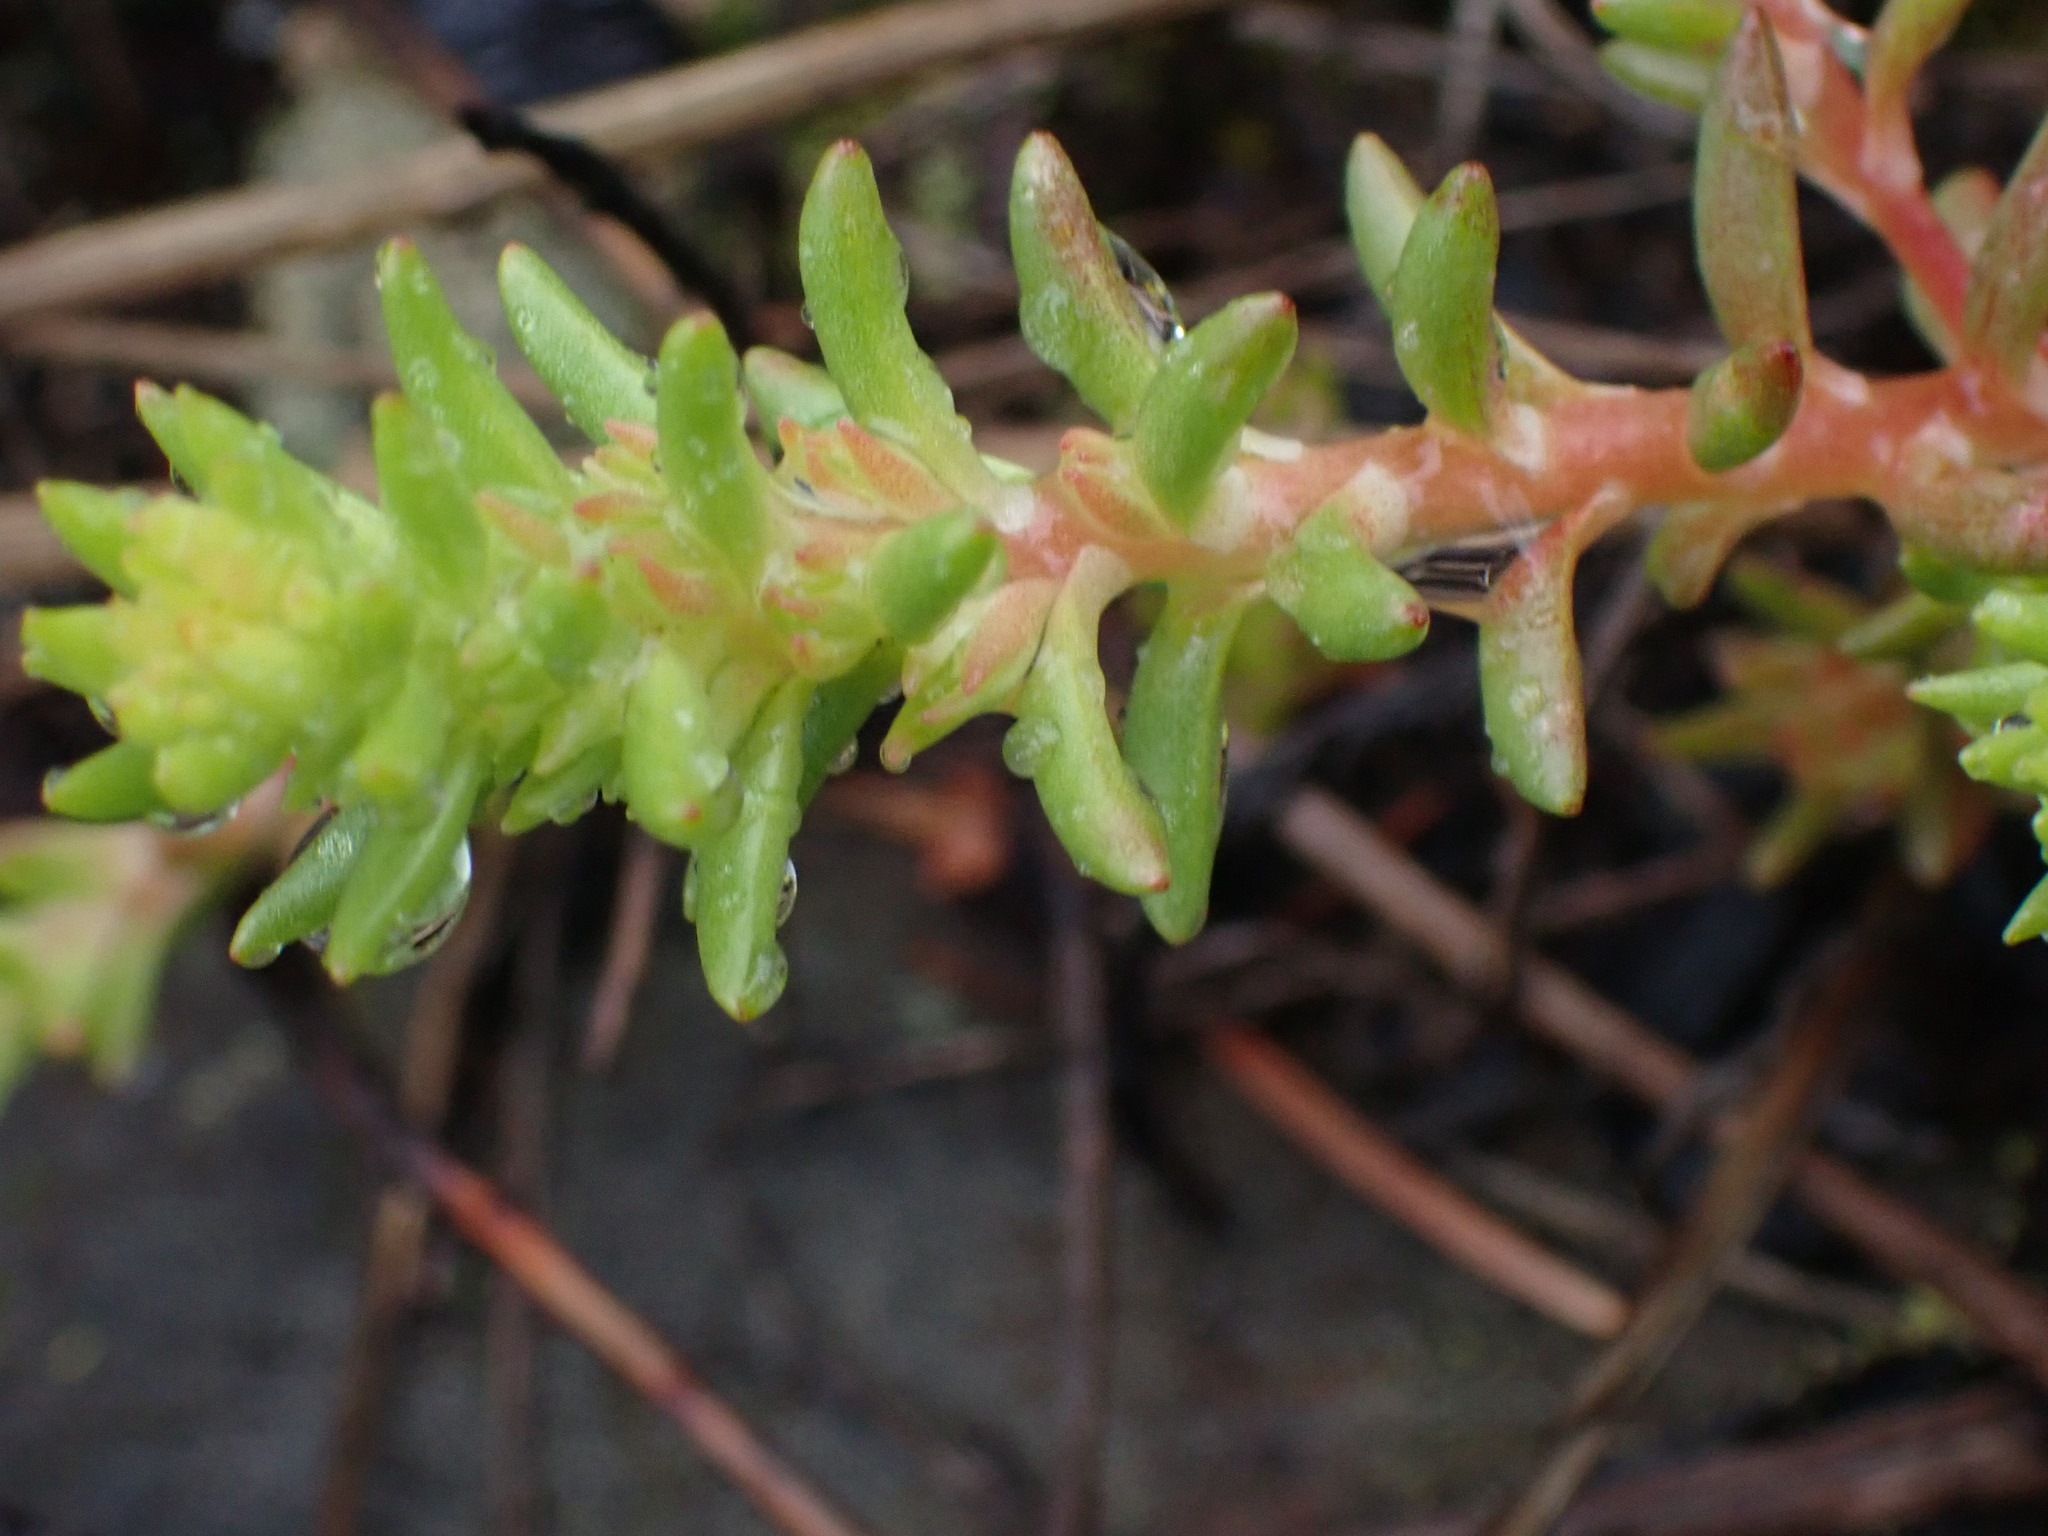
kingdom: Plantae
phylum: Tracheophyta
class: Magnoliopsida
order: Saxifragales
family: Crassulaceae
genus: Sedum
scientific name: Sedum stenopetalum
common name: Narrow-petaled stonecrop
